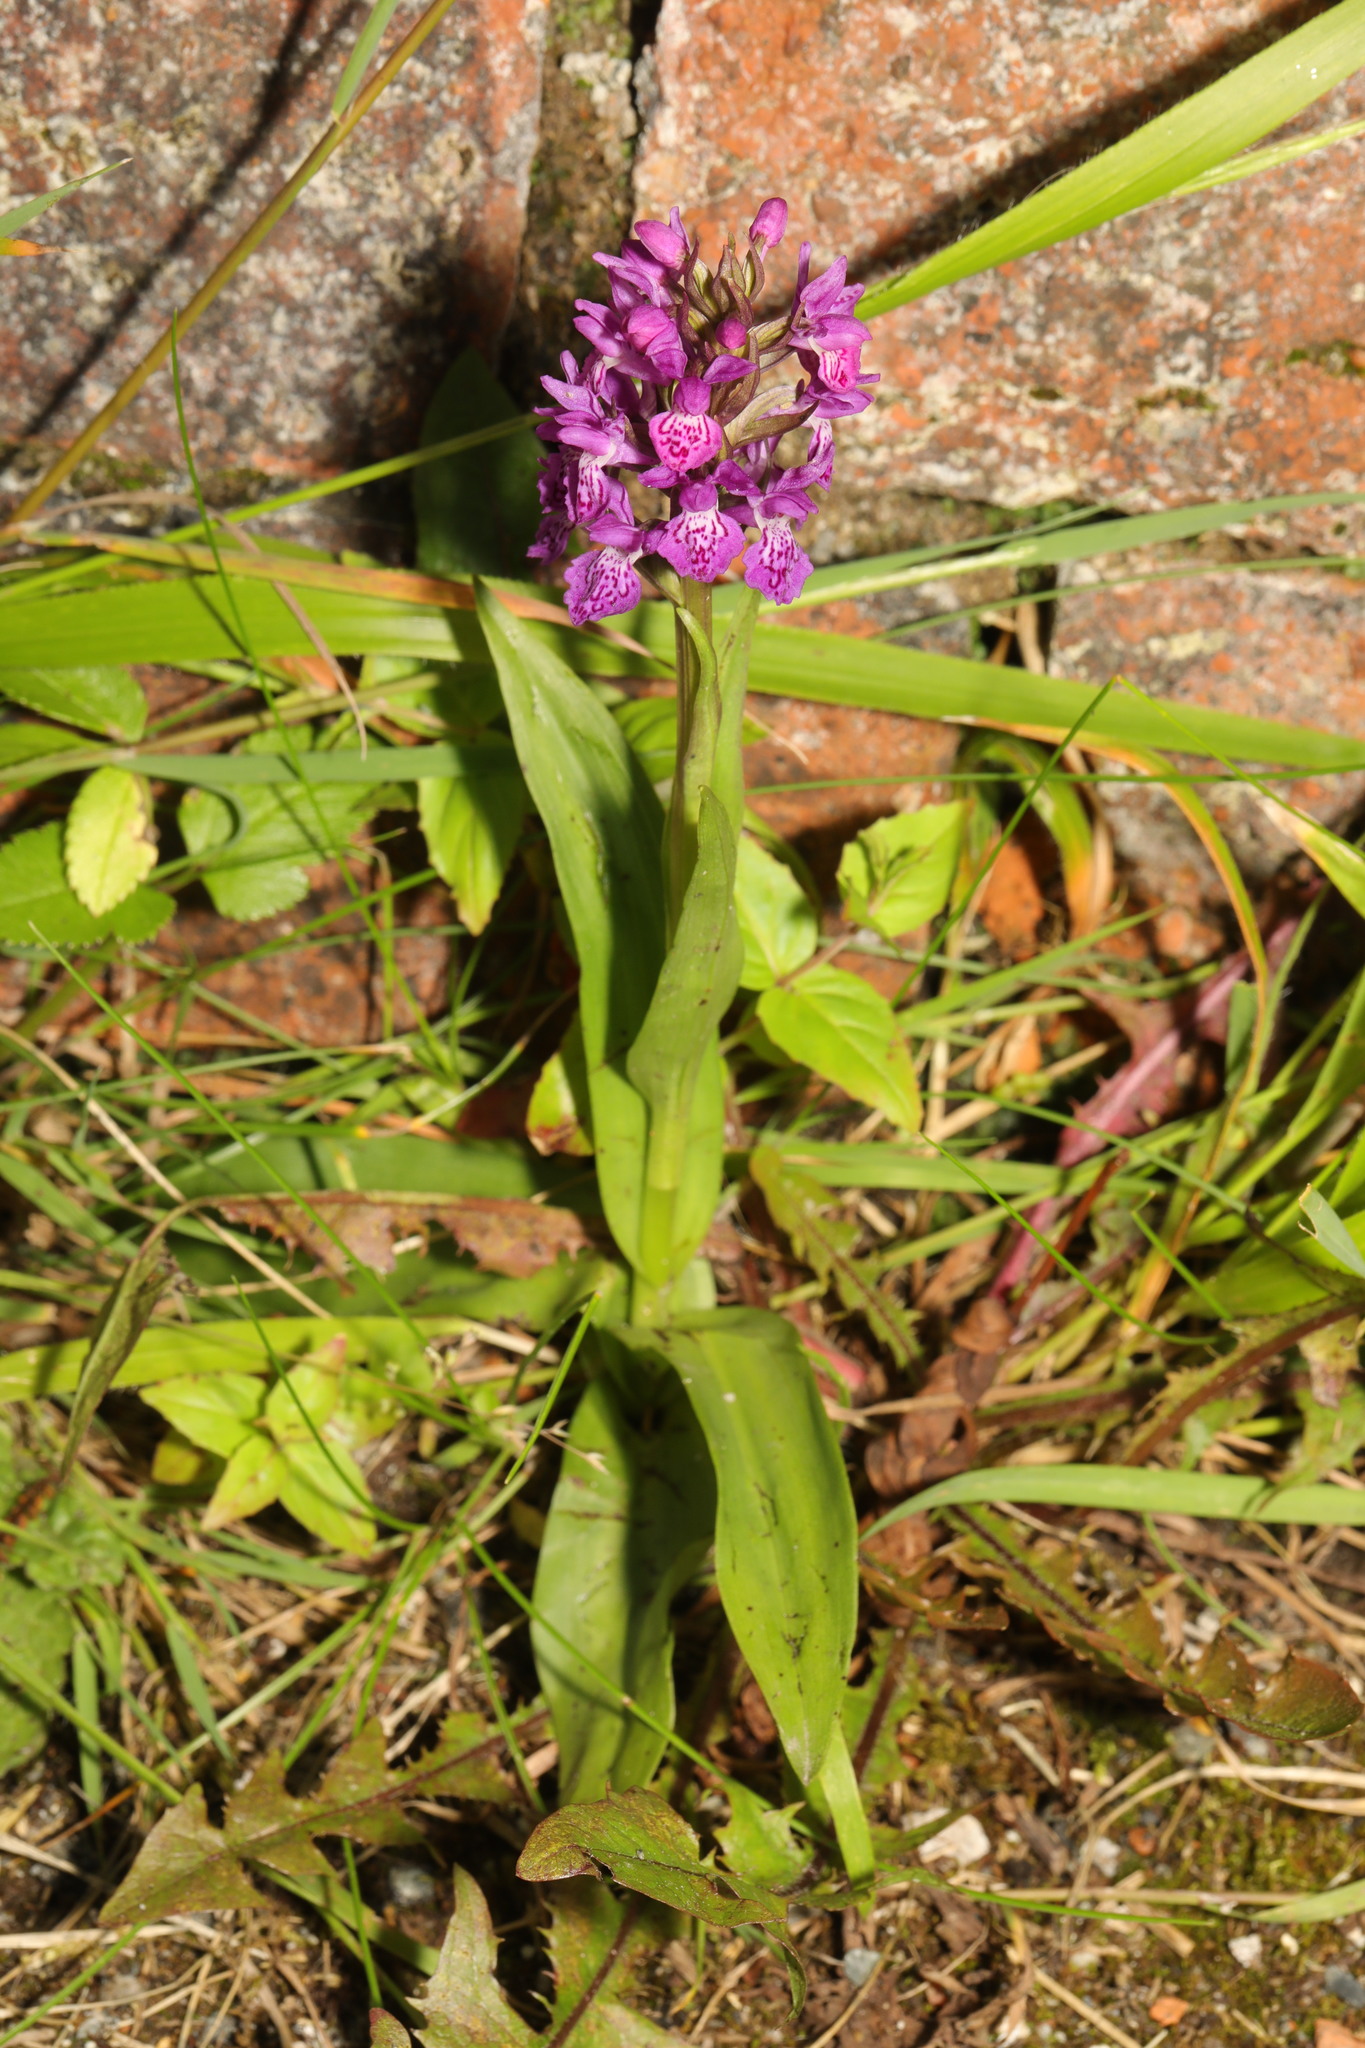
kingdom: Plantae
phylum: Tracheophyta
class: Liliopsida
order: Asparagales
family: Orchidaceae
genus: Dactylorhiza
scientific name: Dactylorhiza majalis
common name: Marsh orchid
